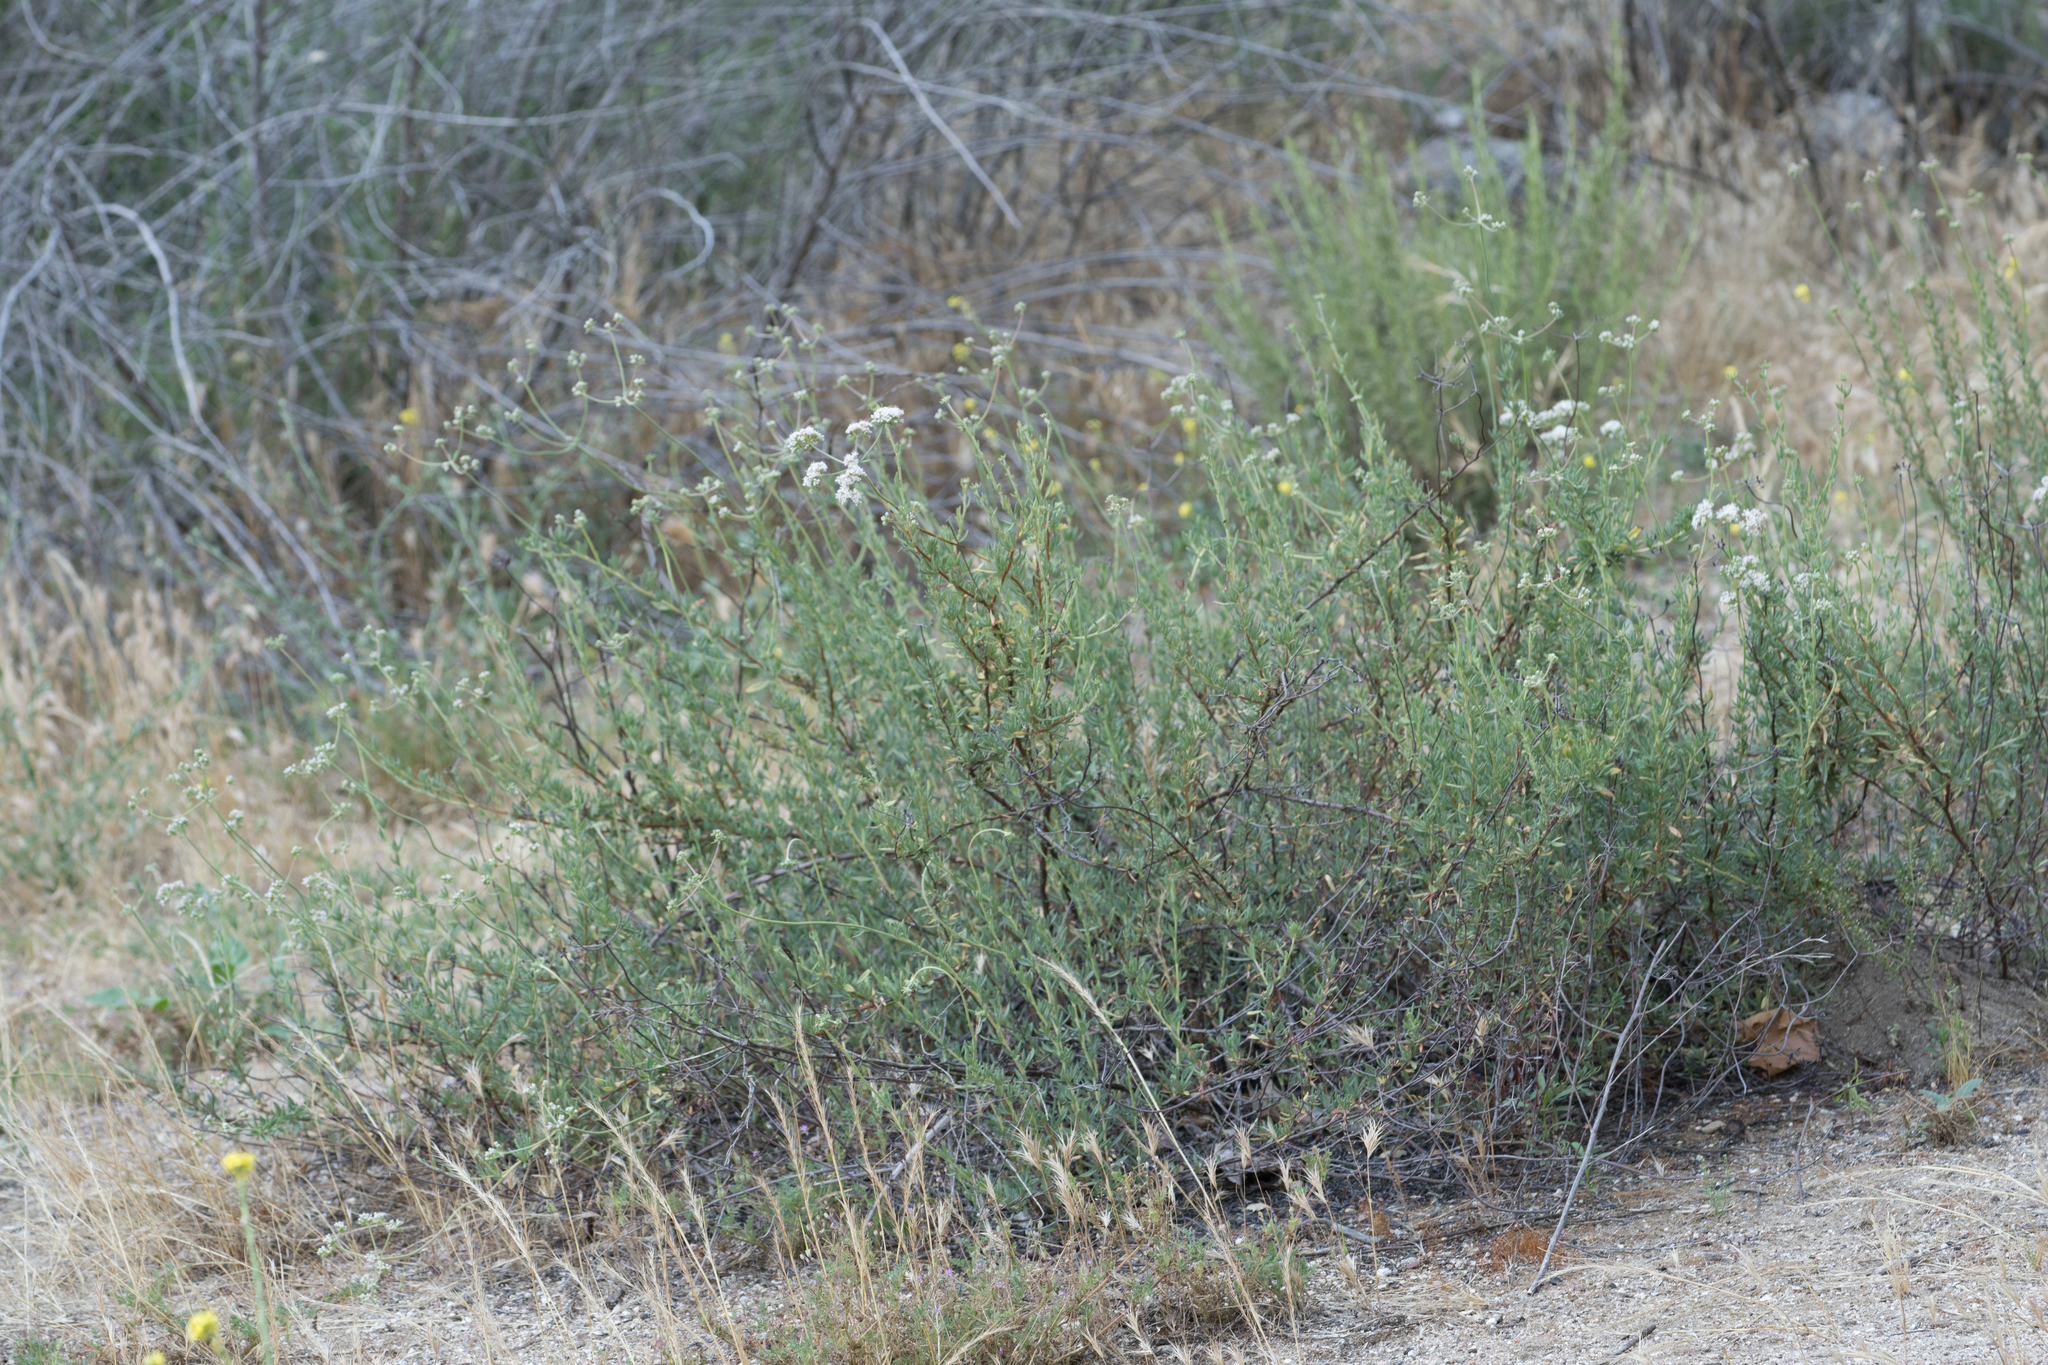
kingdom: Plantae
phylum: Tracheophyta
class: Magnoliopsida
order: Caryophyllales
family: Polygonaceae
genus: Eriogonum
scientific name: Eriogonum fasciculatum
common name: California wild buckwheat
